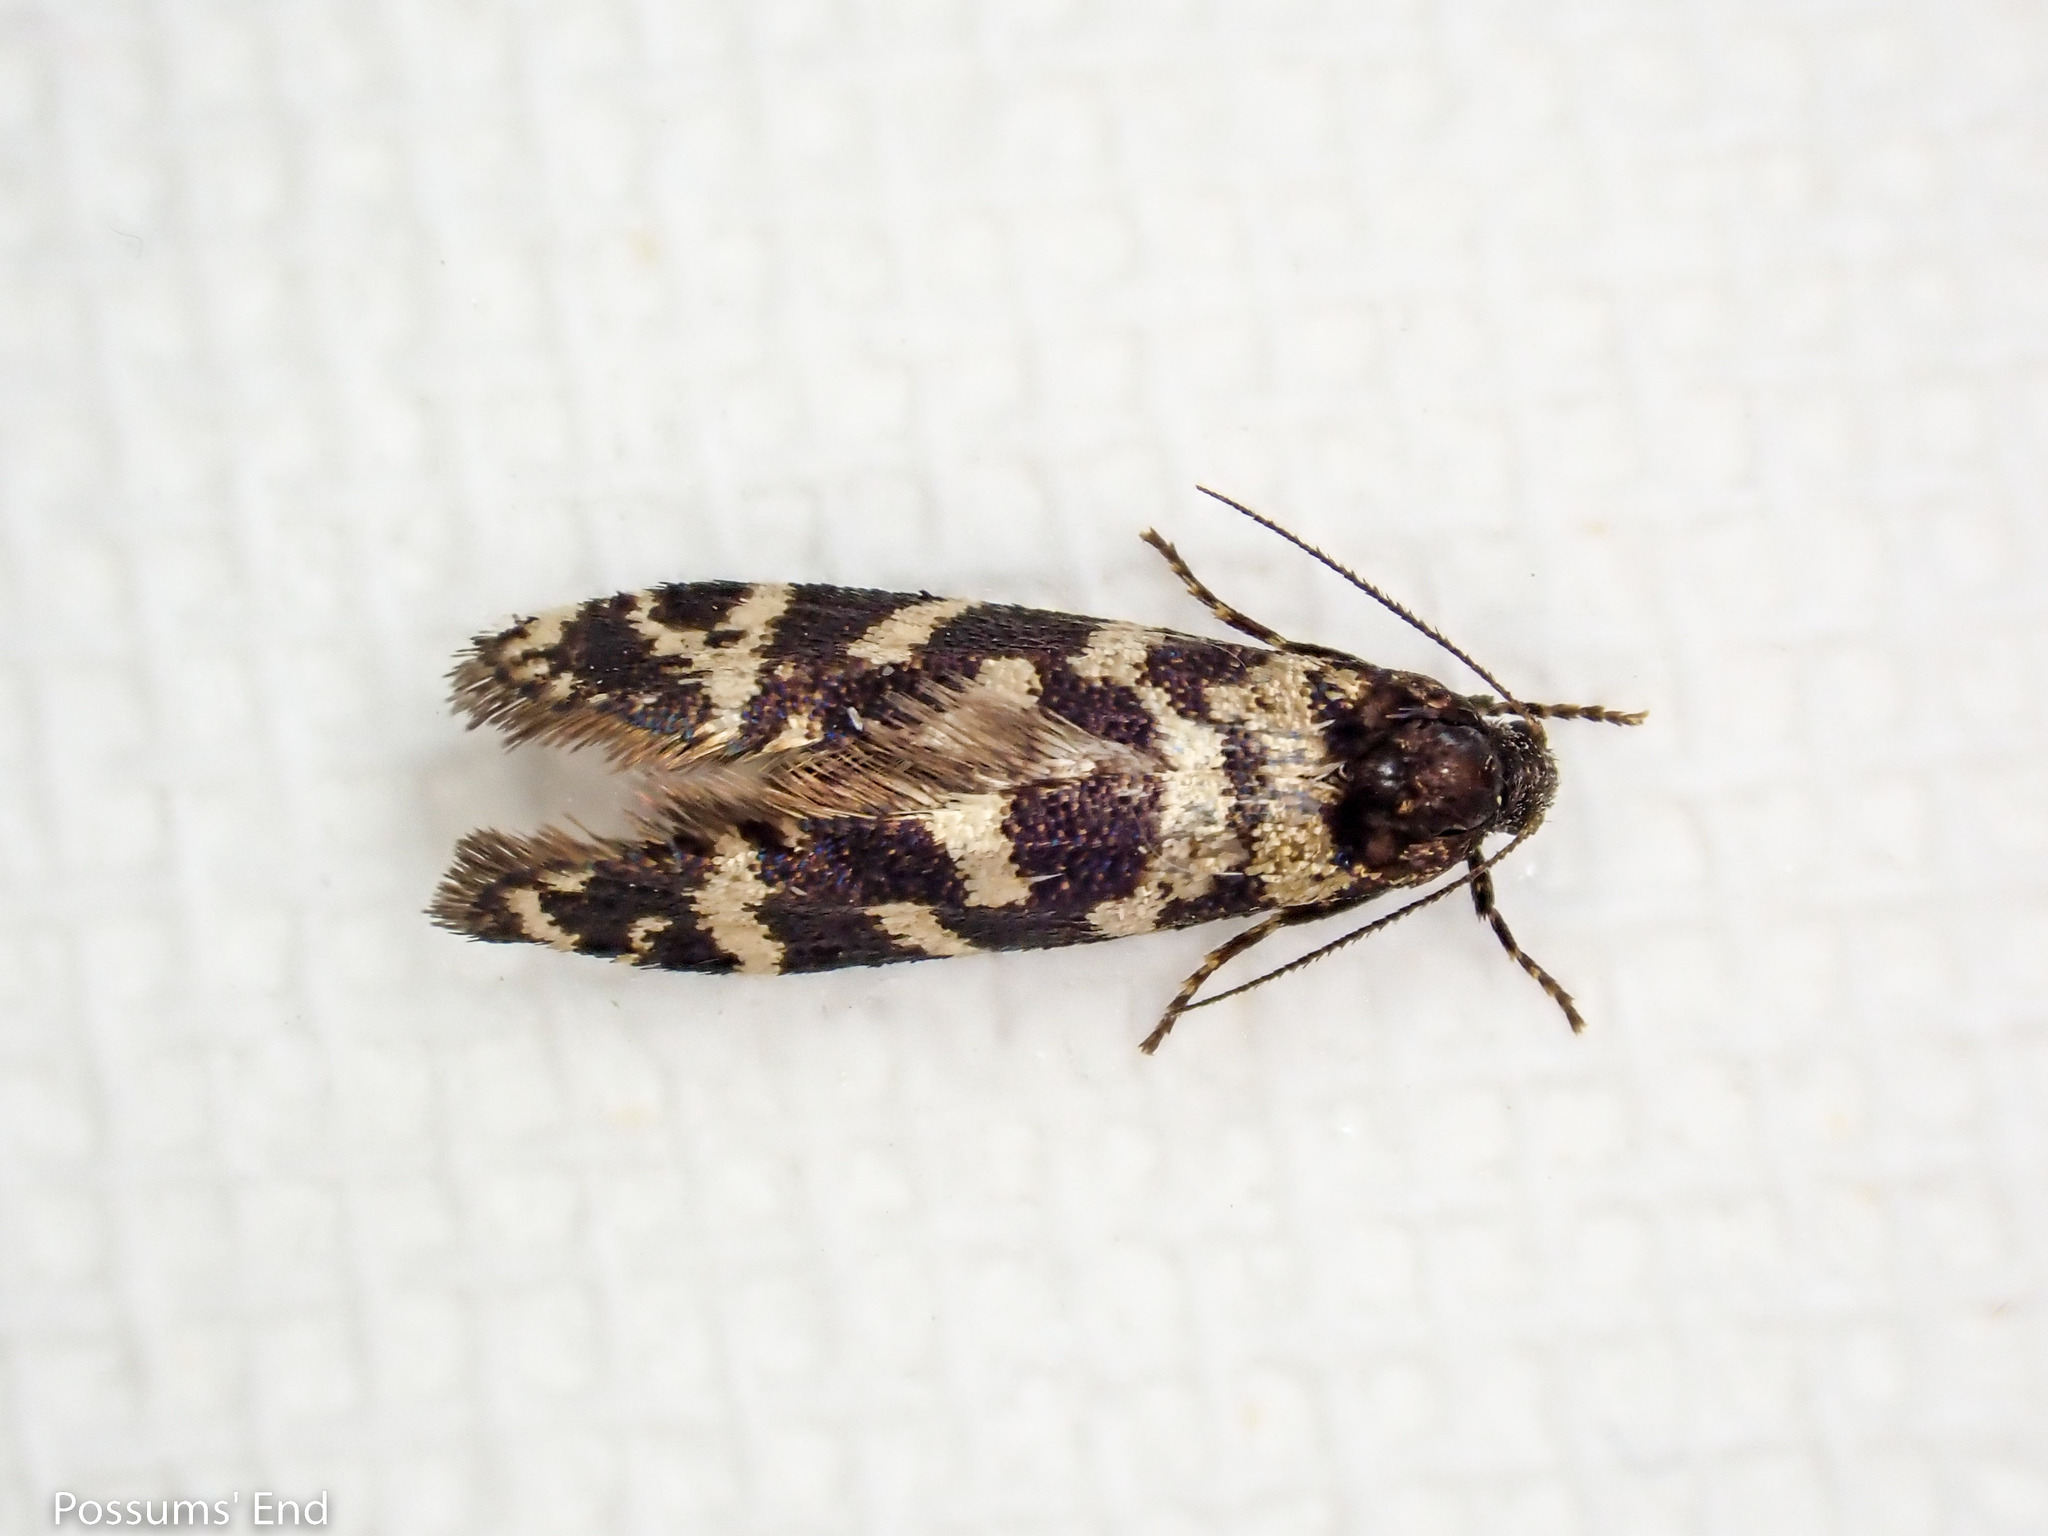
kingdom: Animalia
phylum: Arthropoda
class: Insecta
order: Lepidoptera
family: Psychidae
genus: Mallobathra
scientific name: Mallobathra memotuina
